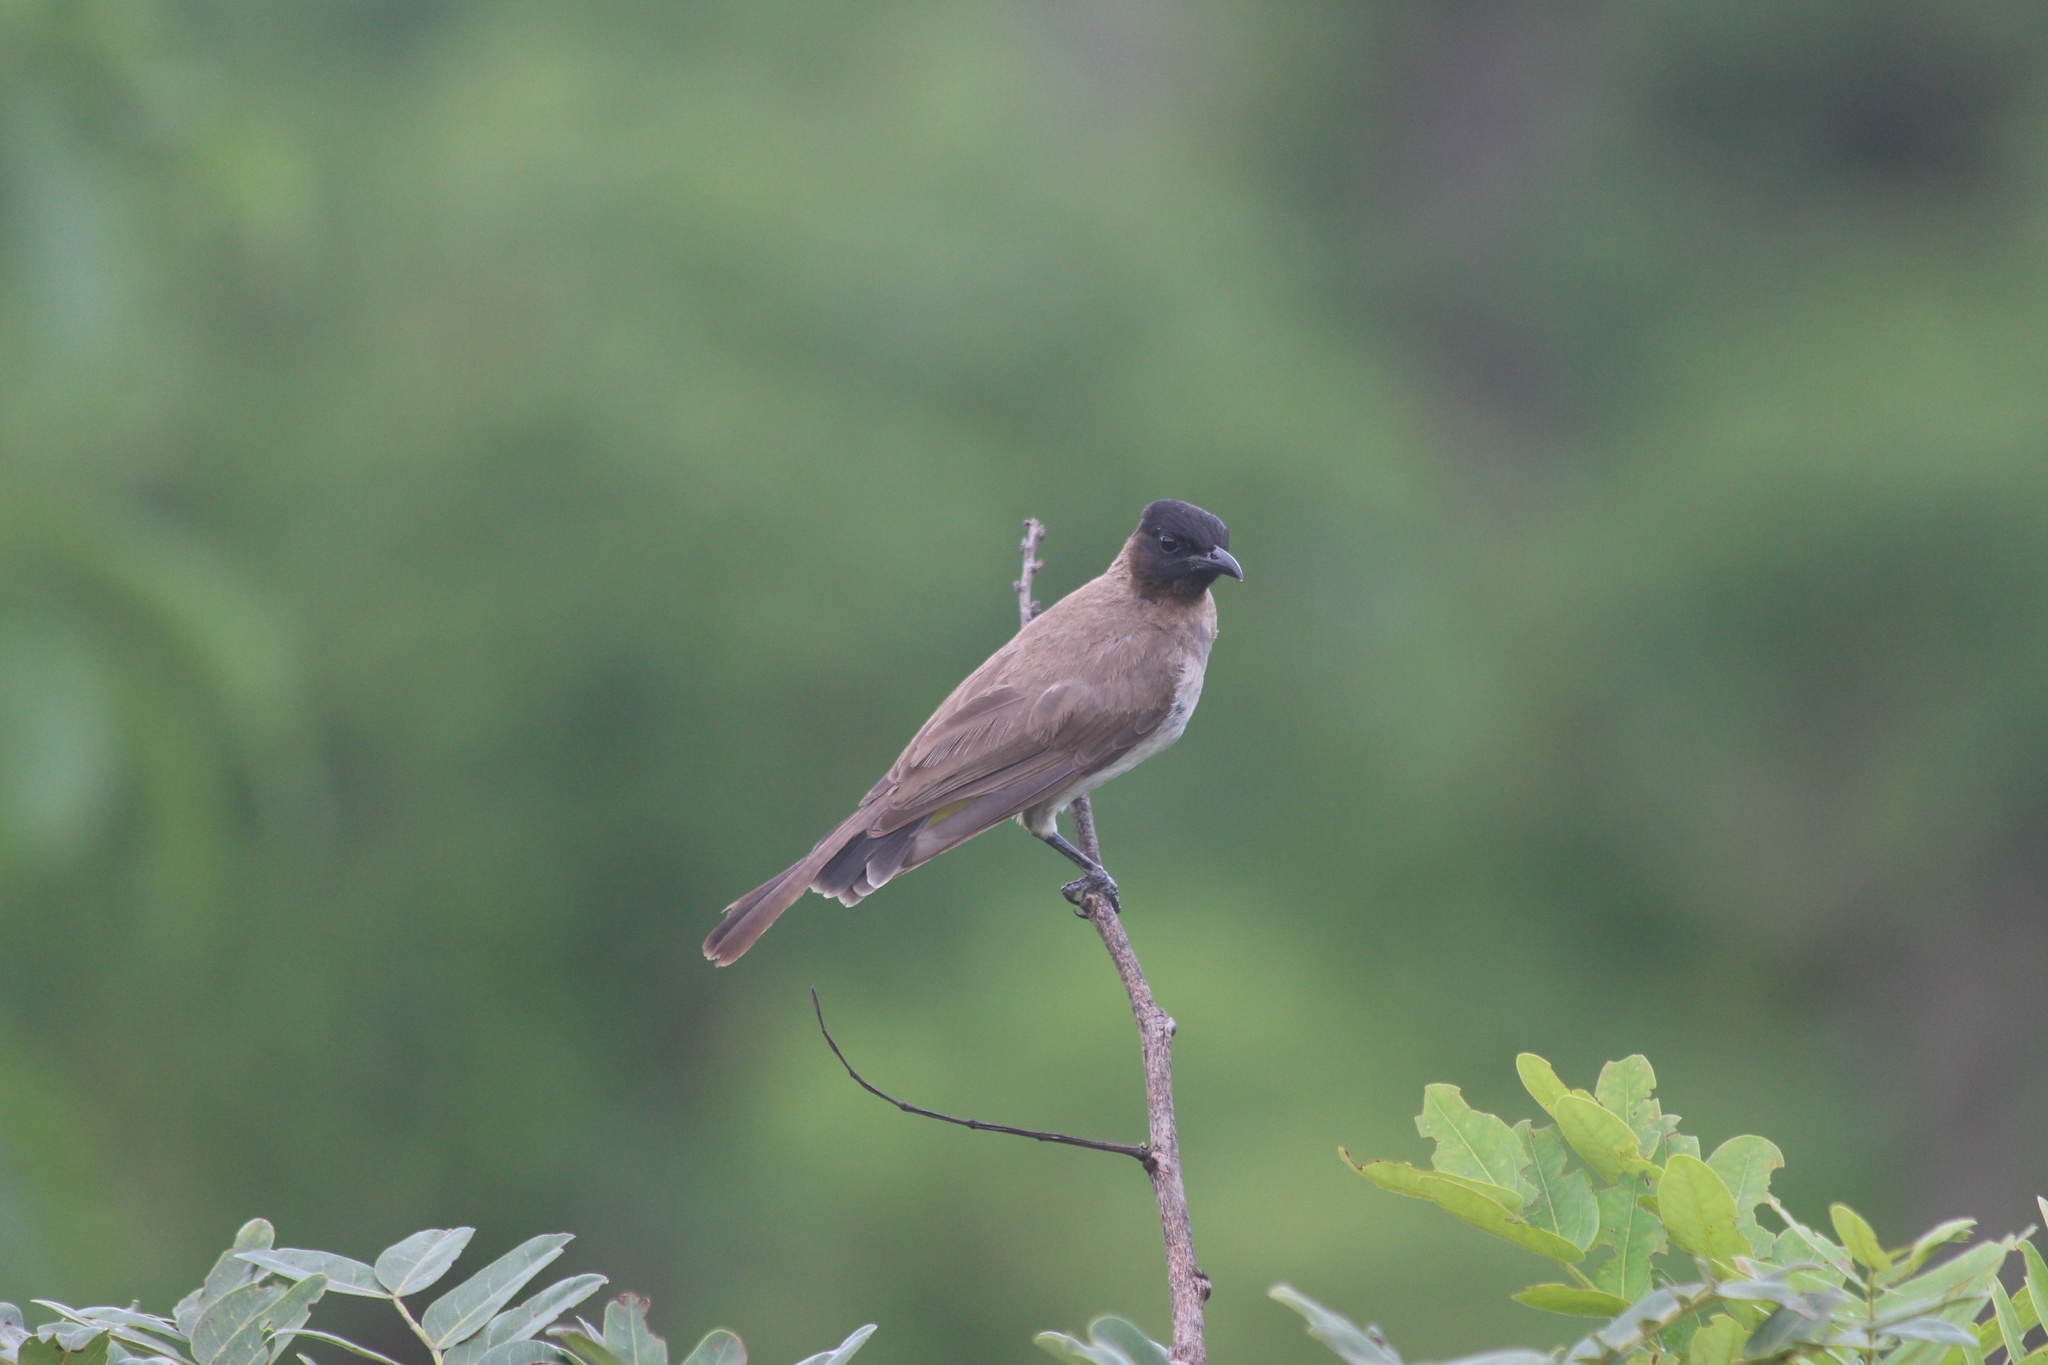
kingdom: Animalia
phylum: Chordata
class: Aves
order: Passeriformes
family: Pycnonotidae
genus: Pycnonotus
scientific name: Pycnonotus barbatus
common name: Common bulbul
